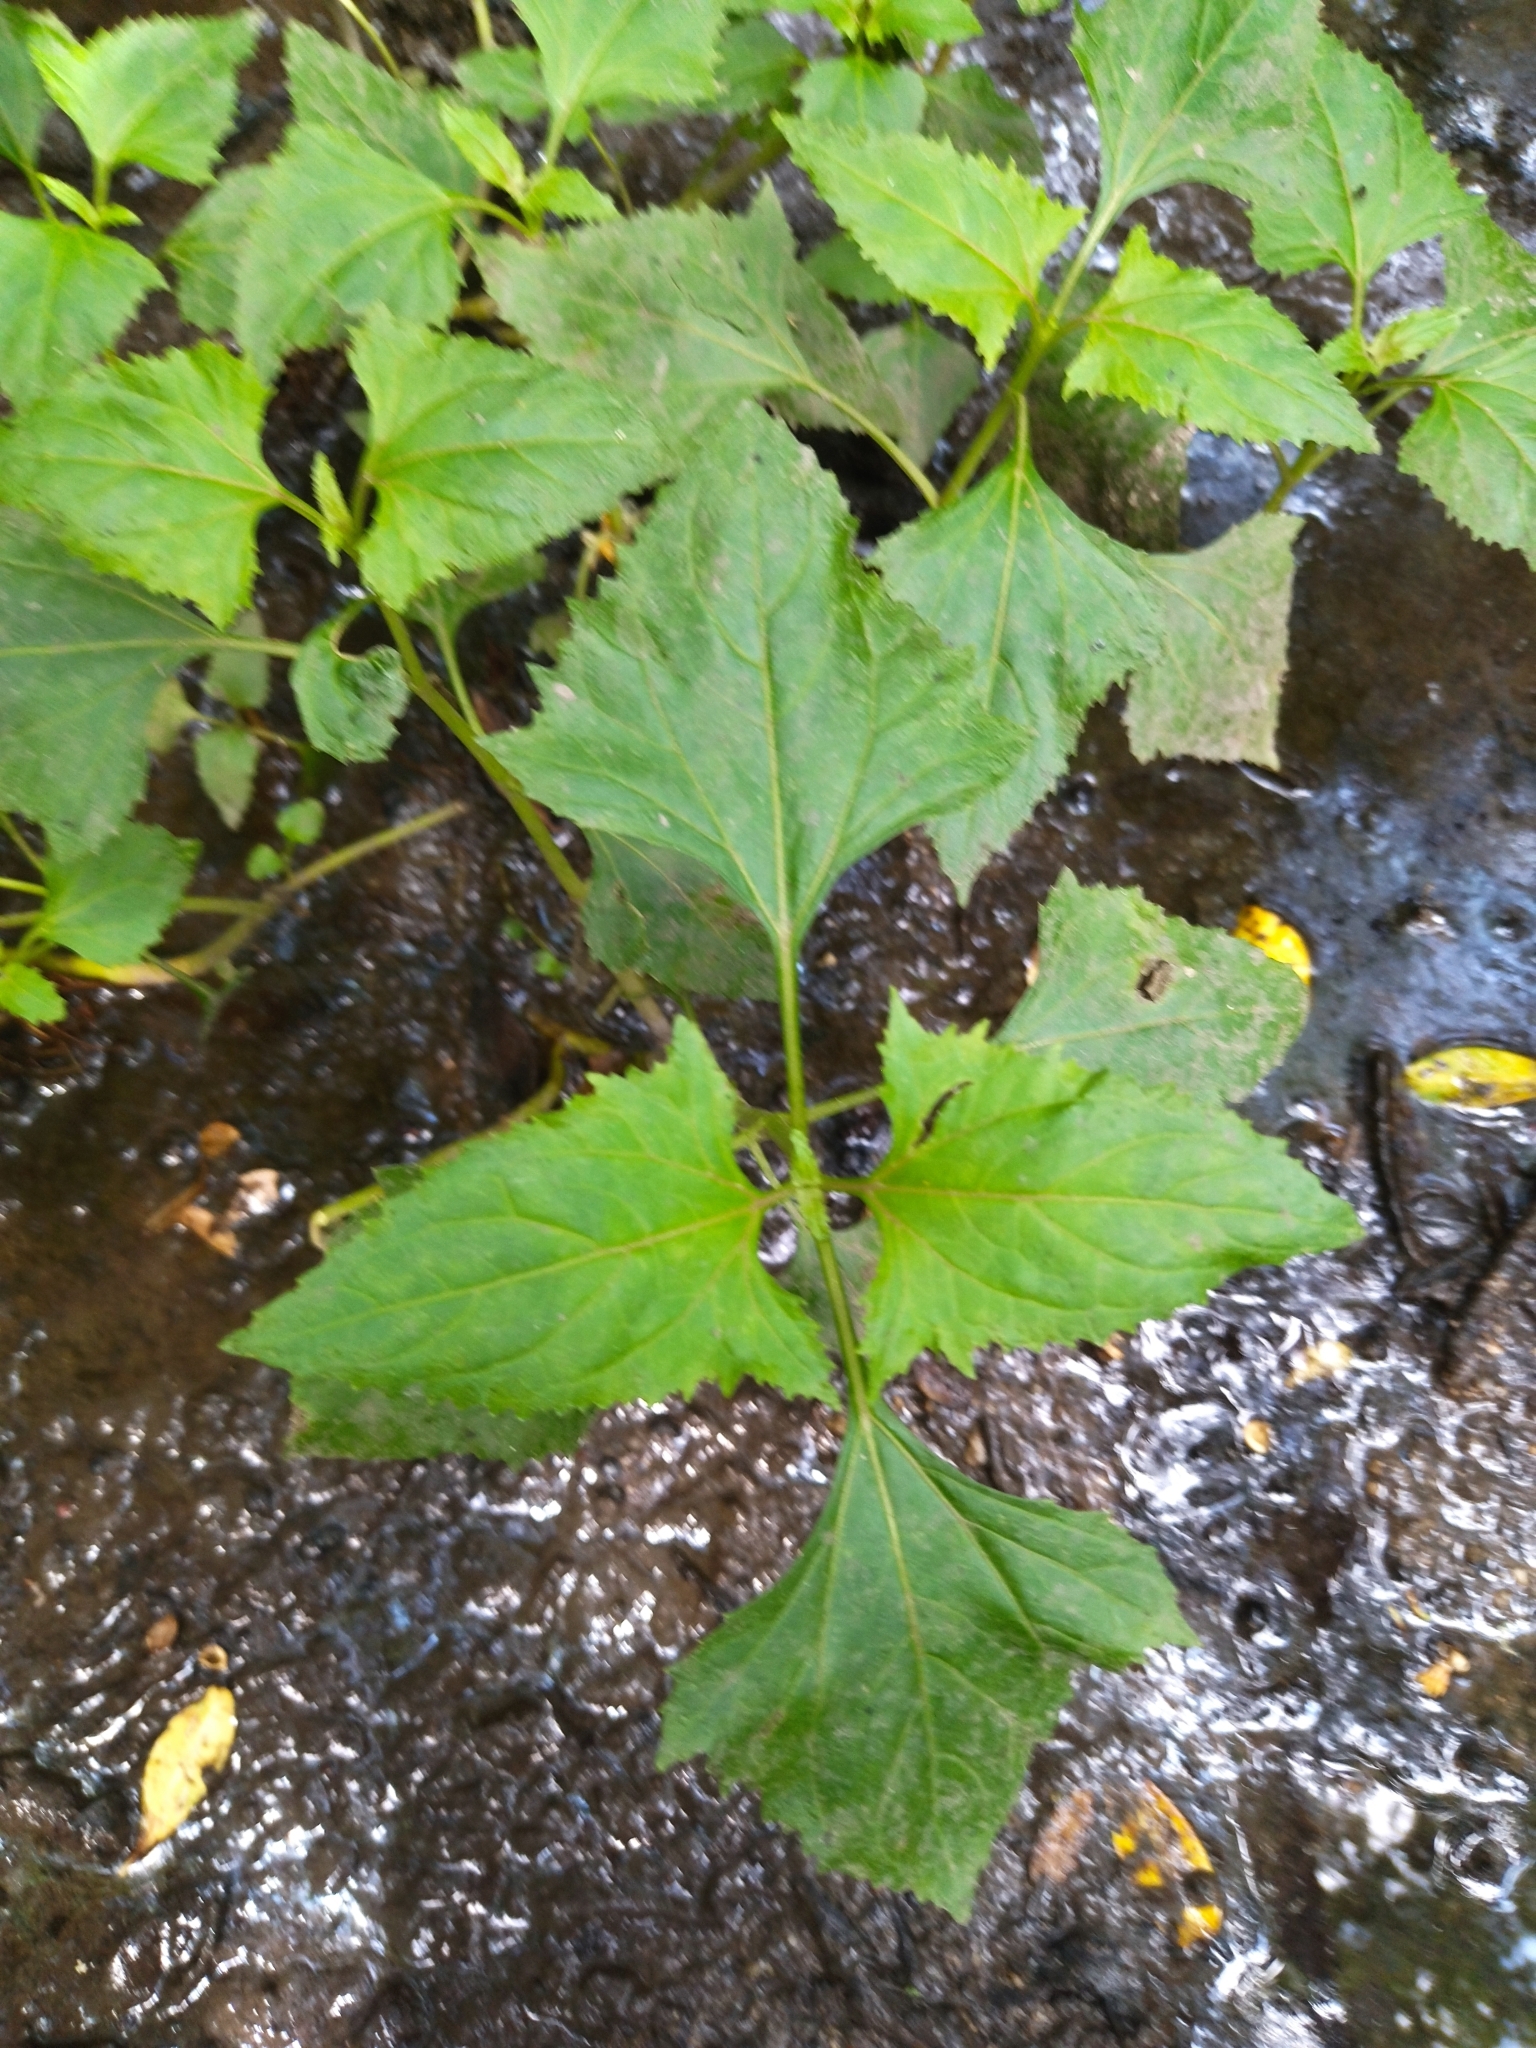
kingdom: Plantae
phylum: Tracheophyta
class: Magnoliopsida
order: Asterales
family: Asteraceae
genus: Adenostemma
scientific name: Adenostemma brasilianum
